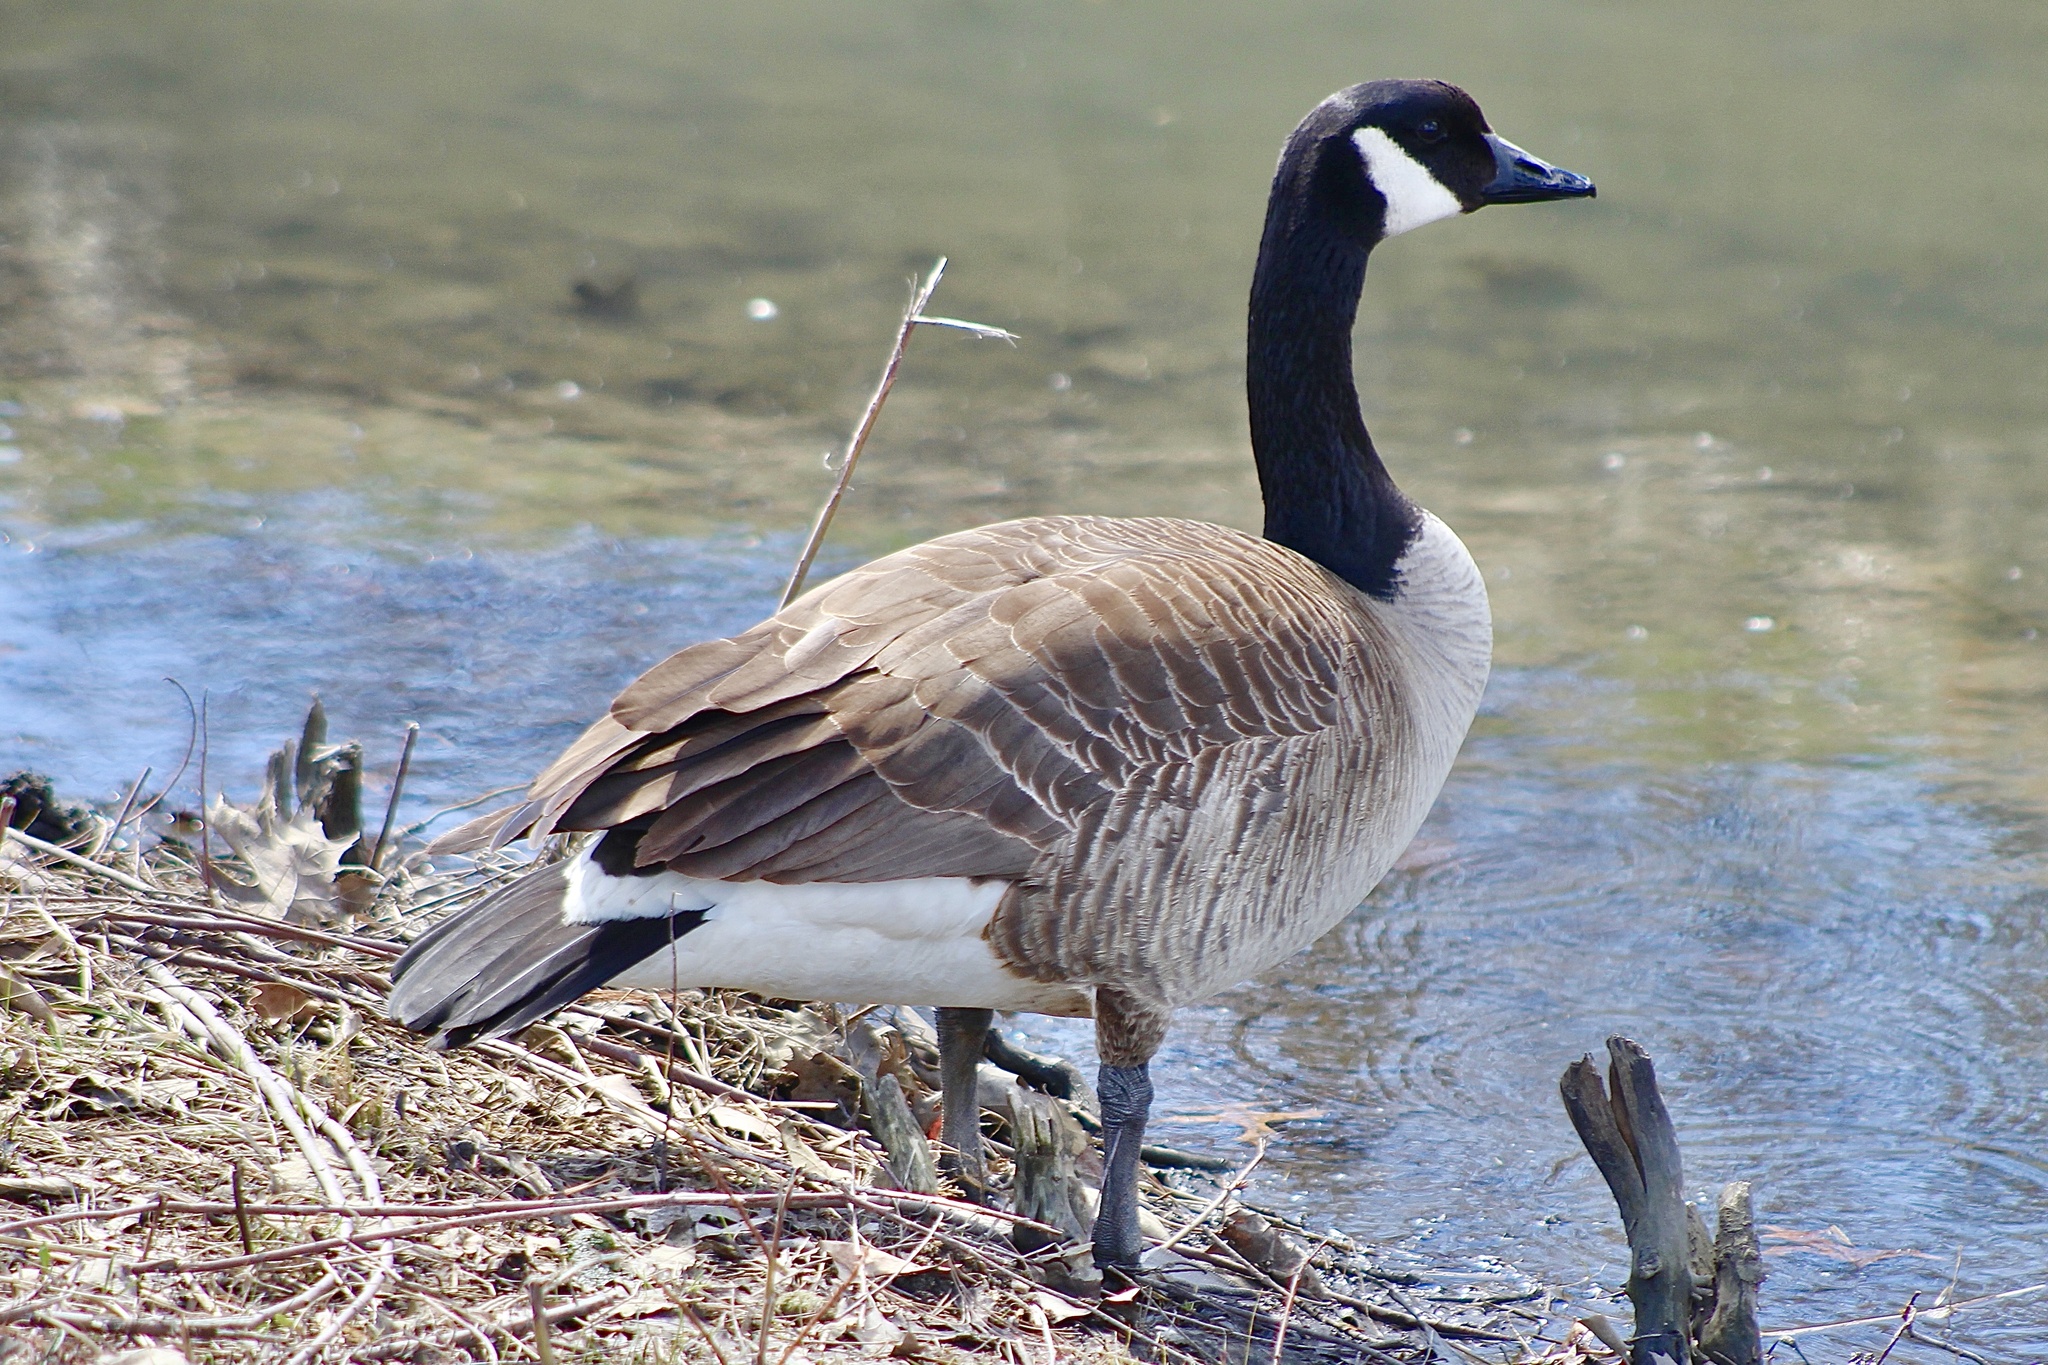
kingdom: Animalia
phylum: Chordata
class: Aves
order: Anseriformes
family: Anatidae
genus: Branta
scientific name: Branta canadensis
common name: Canada goose
